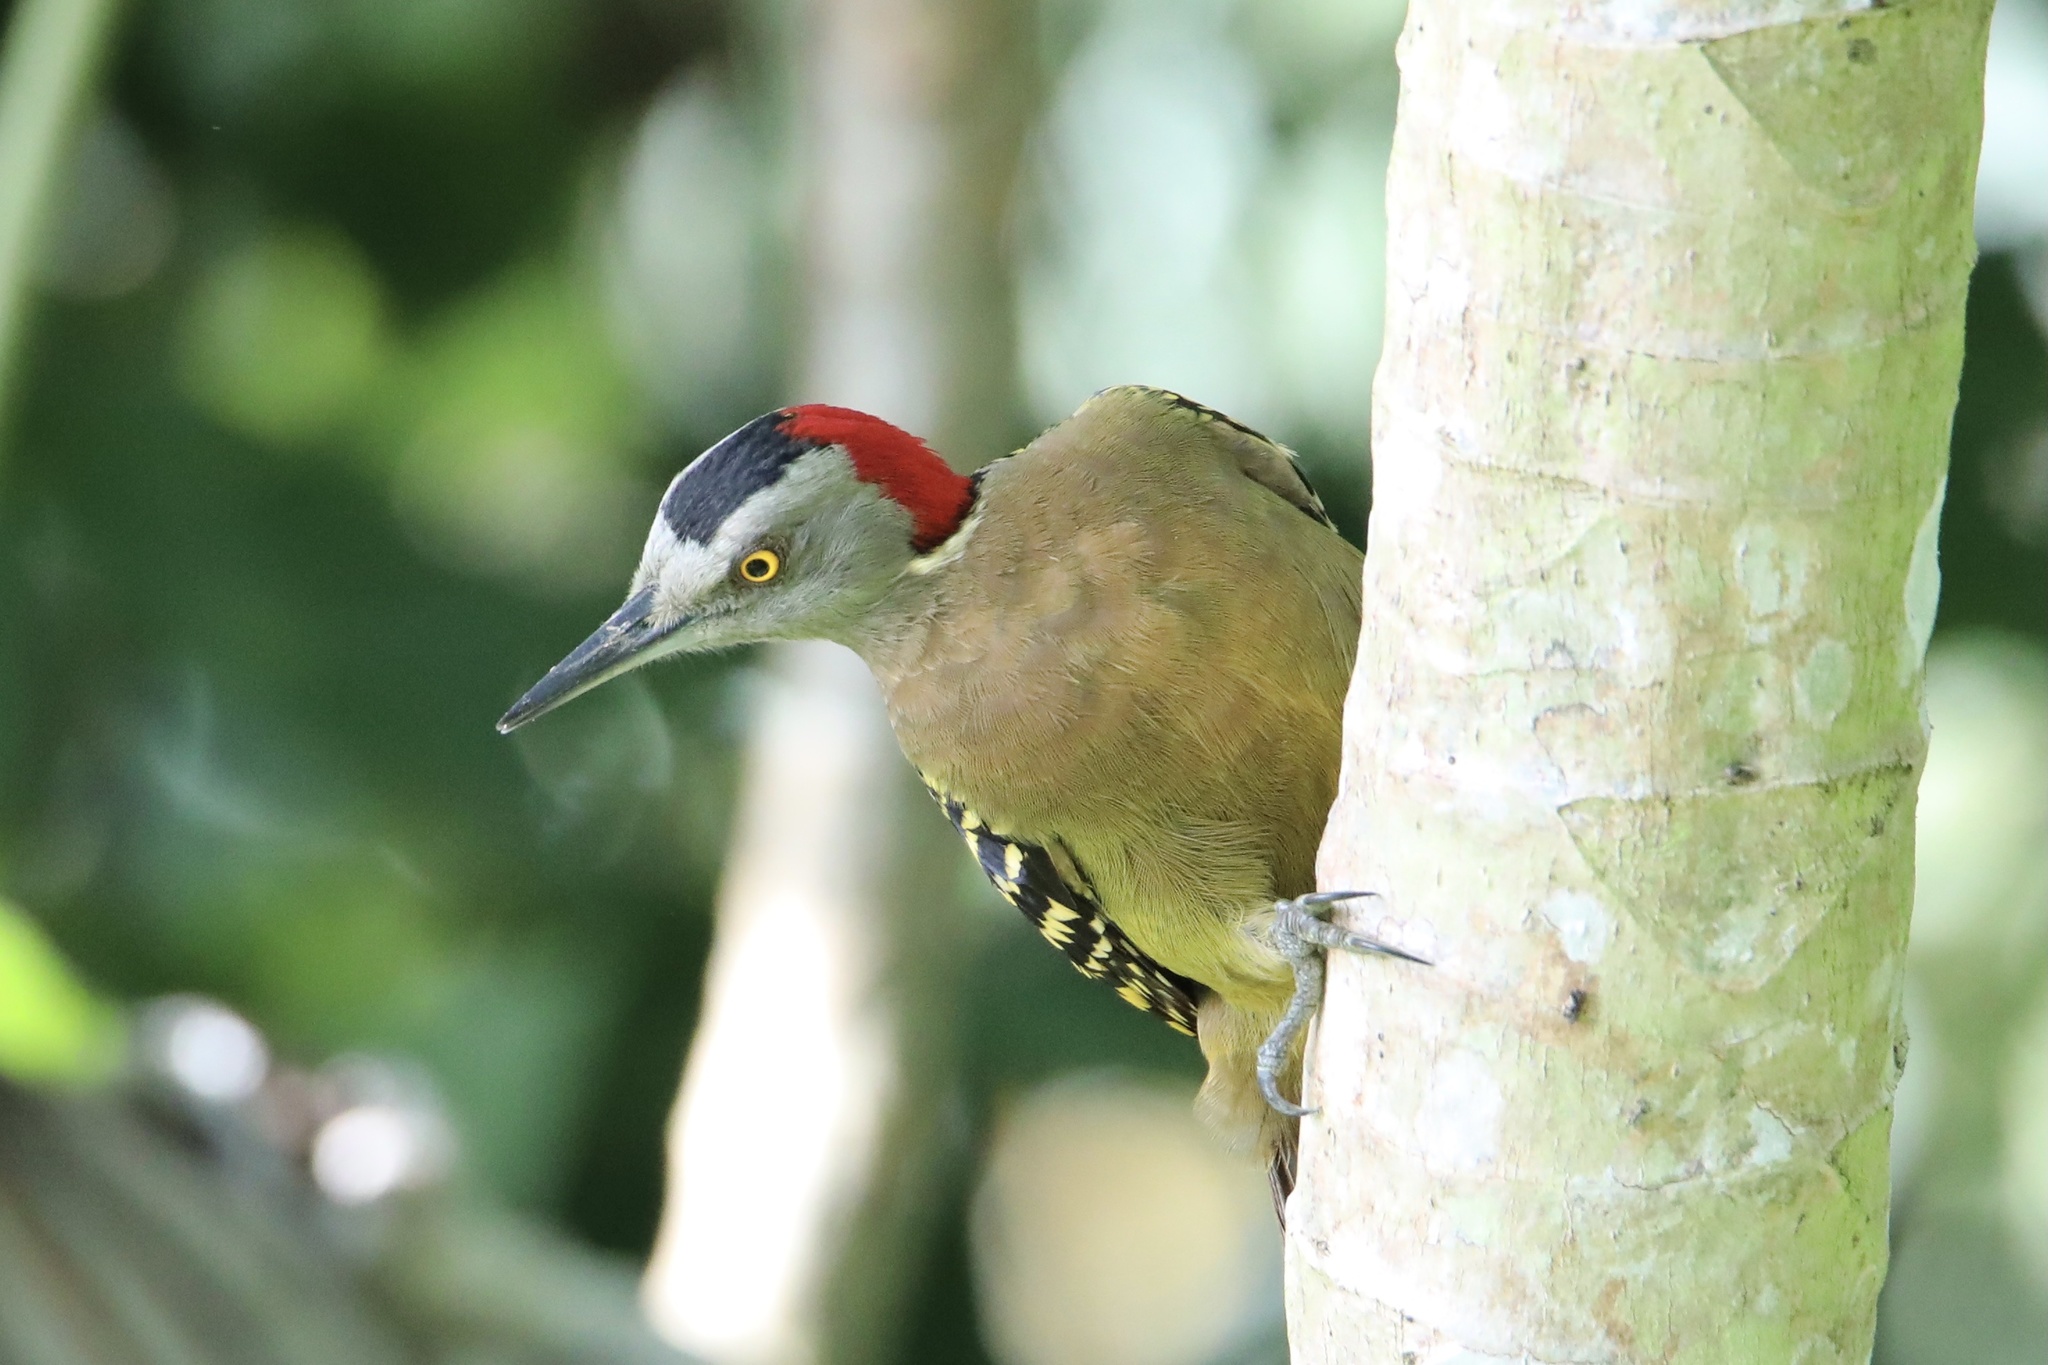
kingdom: Animalia
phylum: Chordata
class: Aves
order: Piciformes
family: Picidae
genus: Melanerpes
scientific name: Melanerpes striatus
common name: Hispaniolan woodpecker
